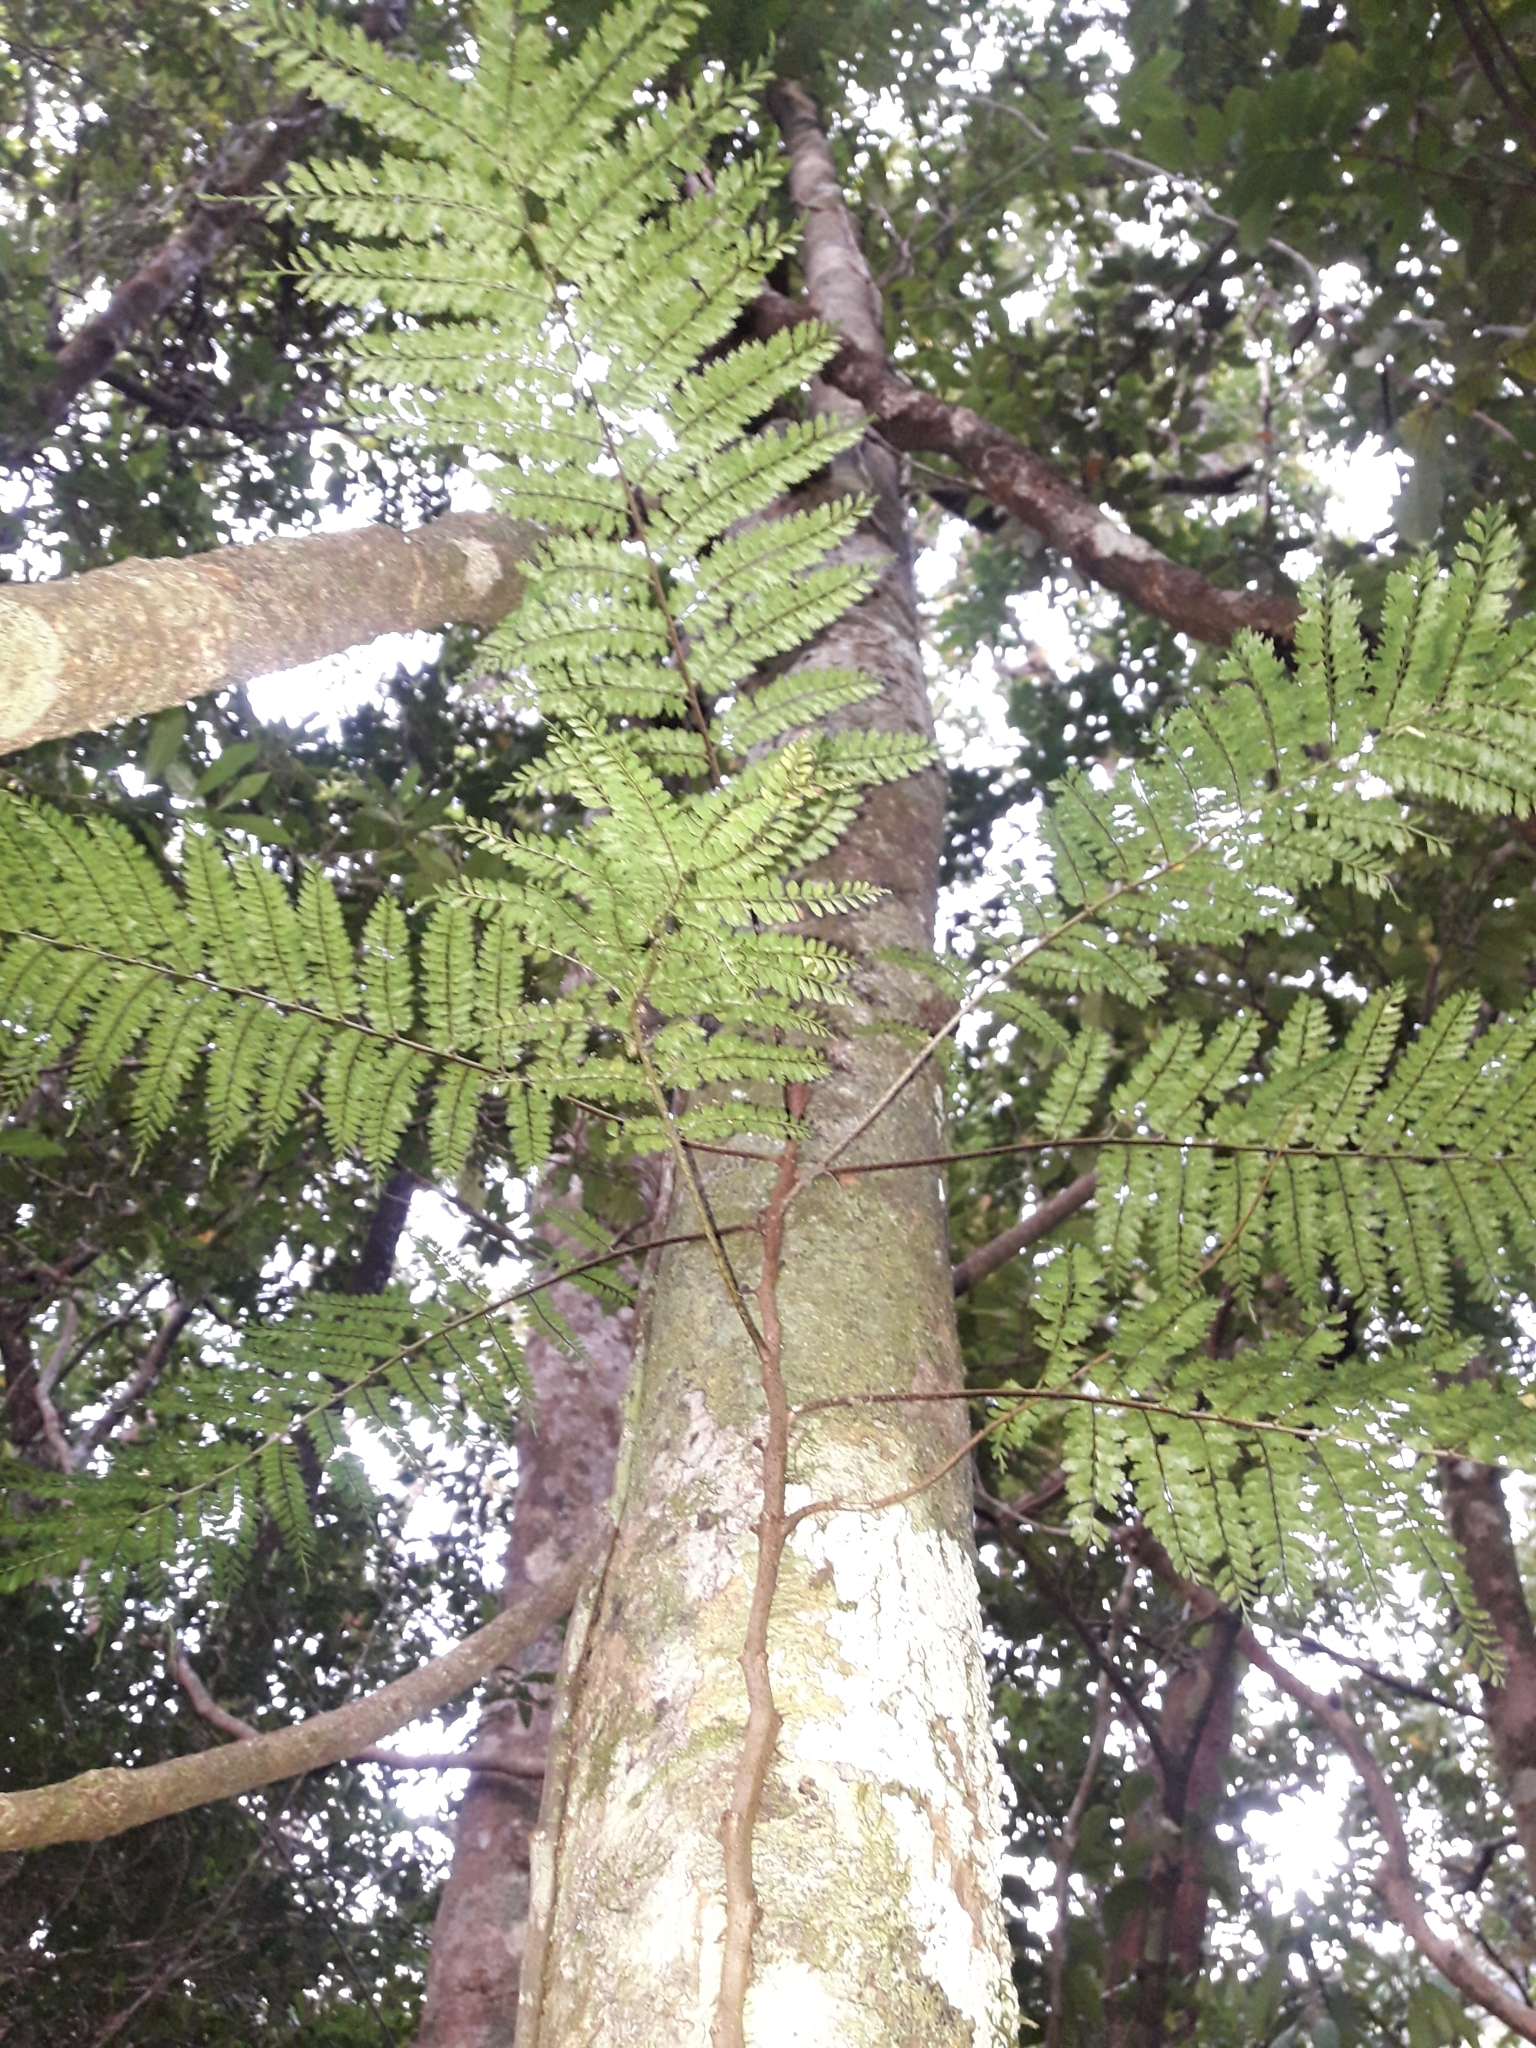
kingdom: Plantae
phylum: Tracheophyta
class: Polypodiopsida
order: Polypodiales
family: Dryopteridaceae
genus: Arthrobotrya
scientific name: Arthrobotrya wilkesiana
